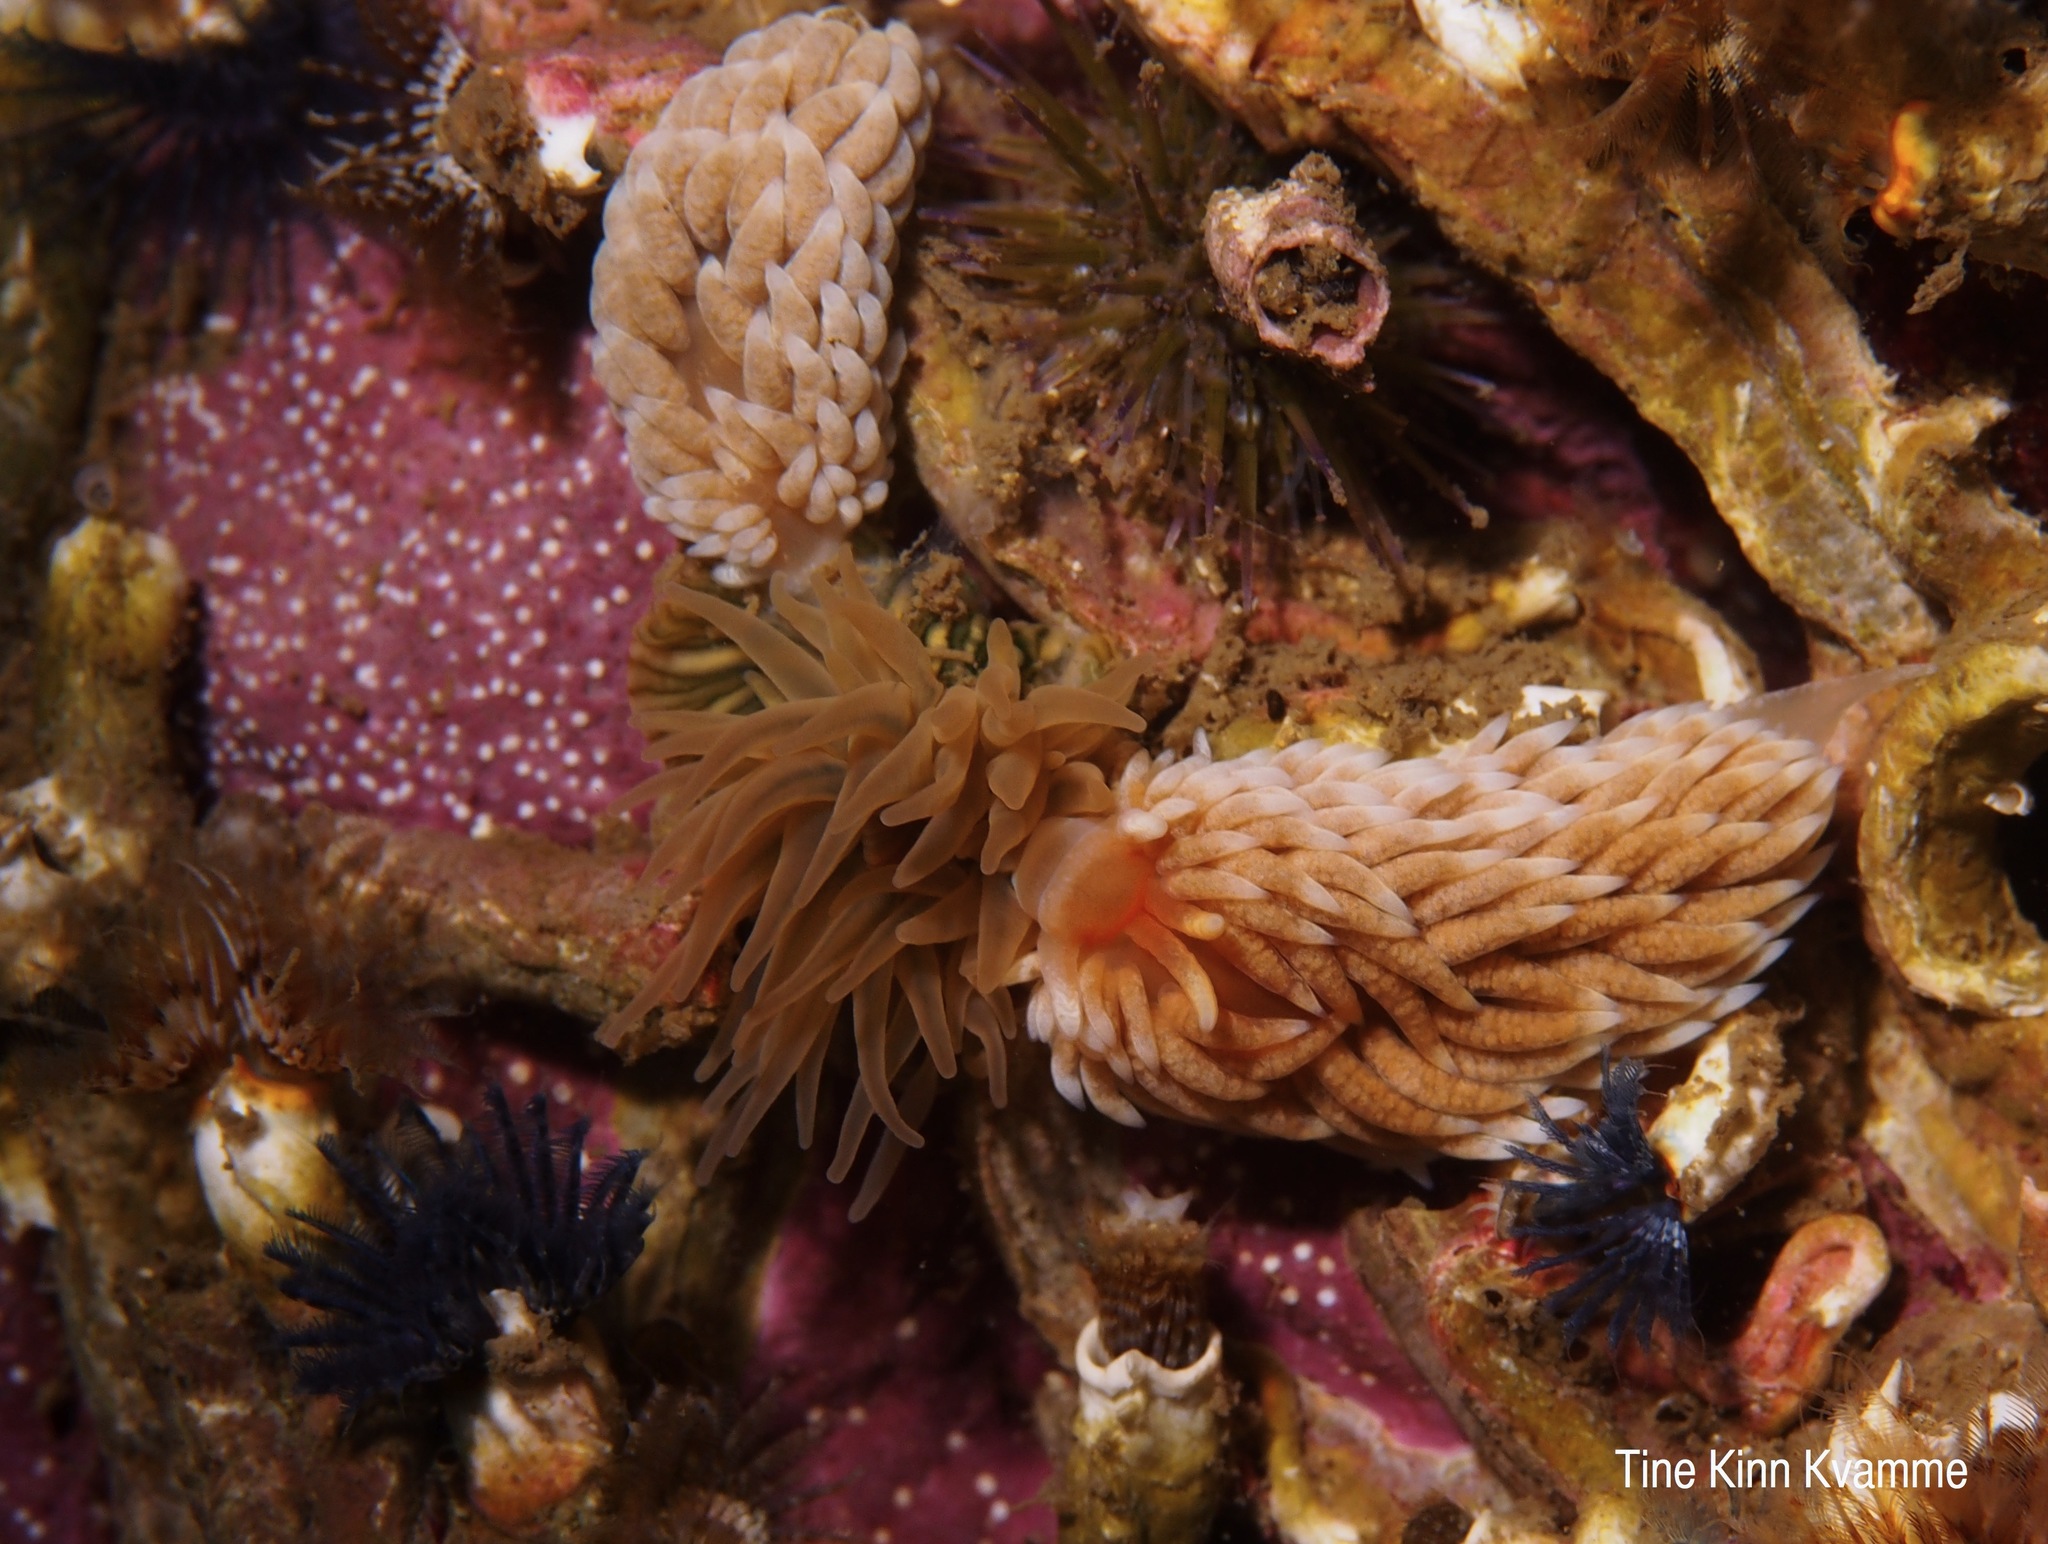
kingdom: Animalia
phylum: Mollusca
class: Gastropoda
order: Nudibranchia
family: Aeolidiidae
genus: Aeolidiella
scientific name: Aeolidiella glauca
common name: Orange-brown aeolid
